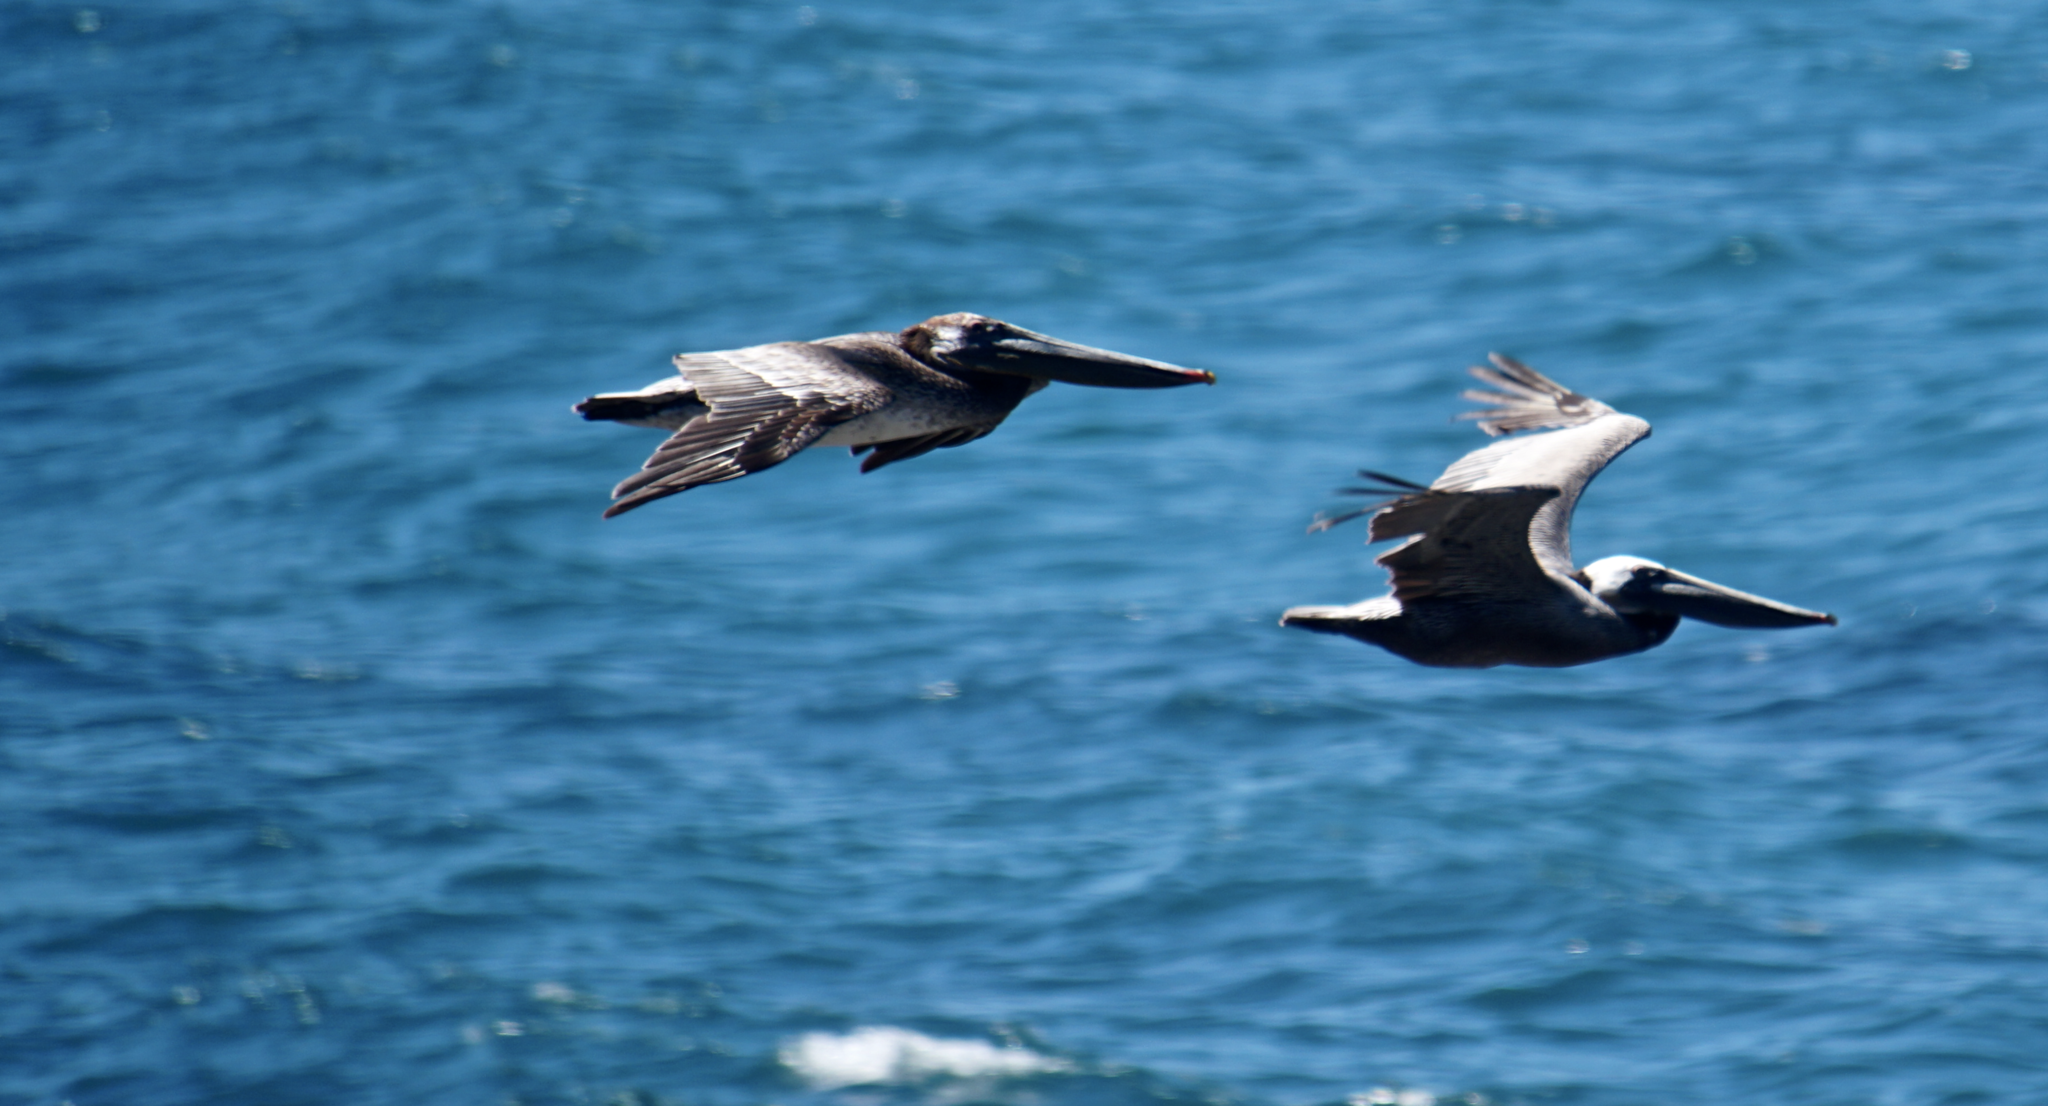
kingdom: Animalia
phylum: Chordata
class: Aves
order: Pelecaniformes
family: Pelecanidae
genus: Pelecanus
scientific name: Pelecanus occidentalis
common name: Brown pelican
